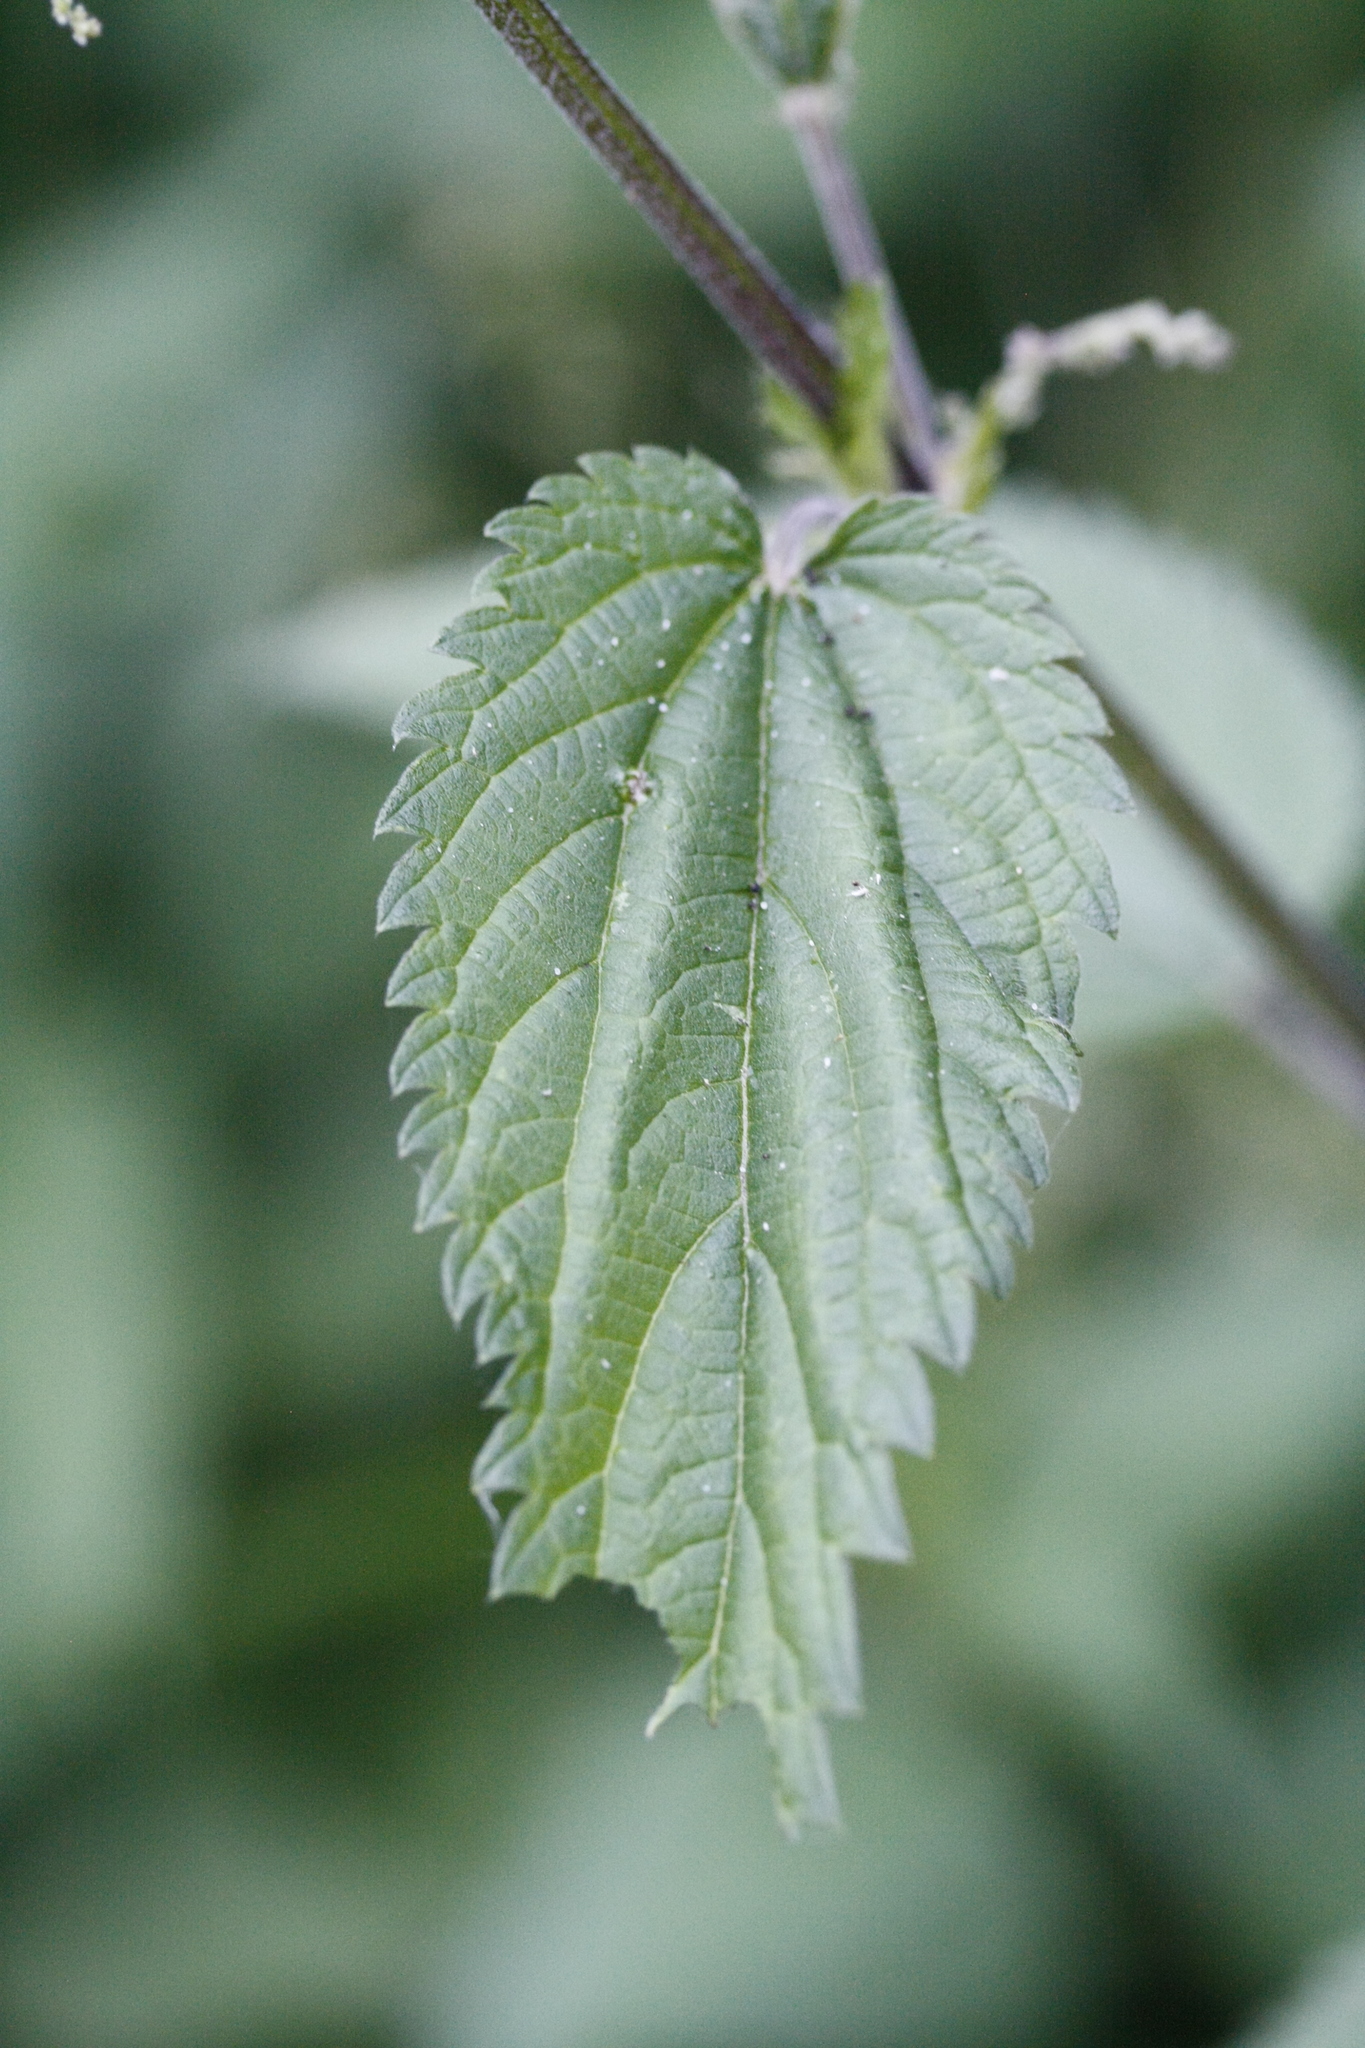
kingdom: Animalia
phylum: Arthropoda
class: Insecta
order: Lepidoptera
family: Nymphalidae
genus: Araschnia
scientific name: Araschnia levana
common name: Map butterfly
